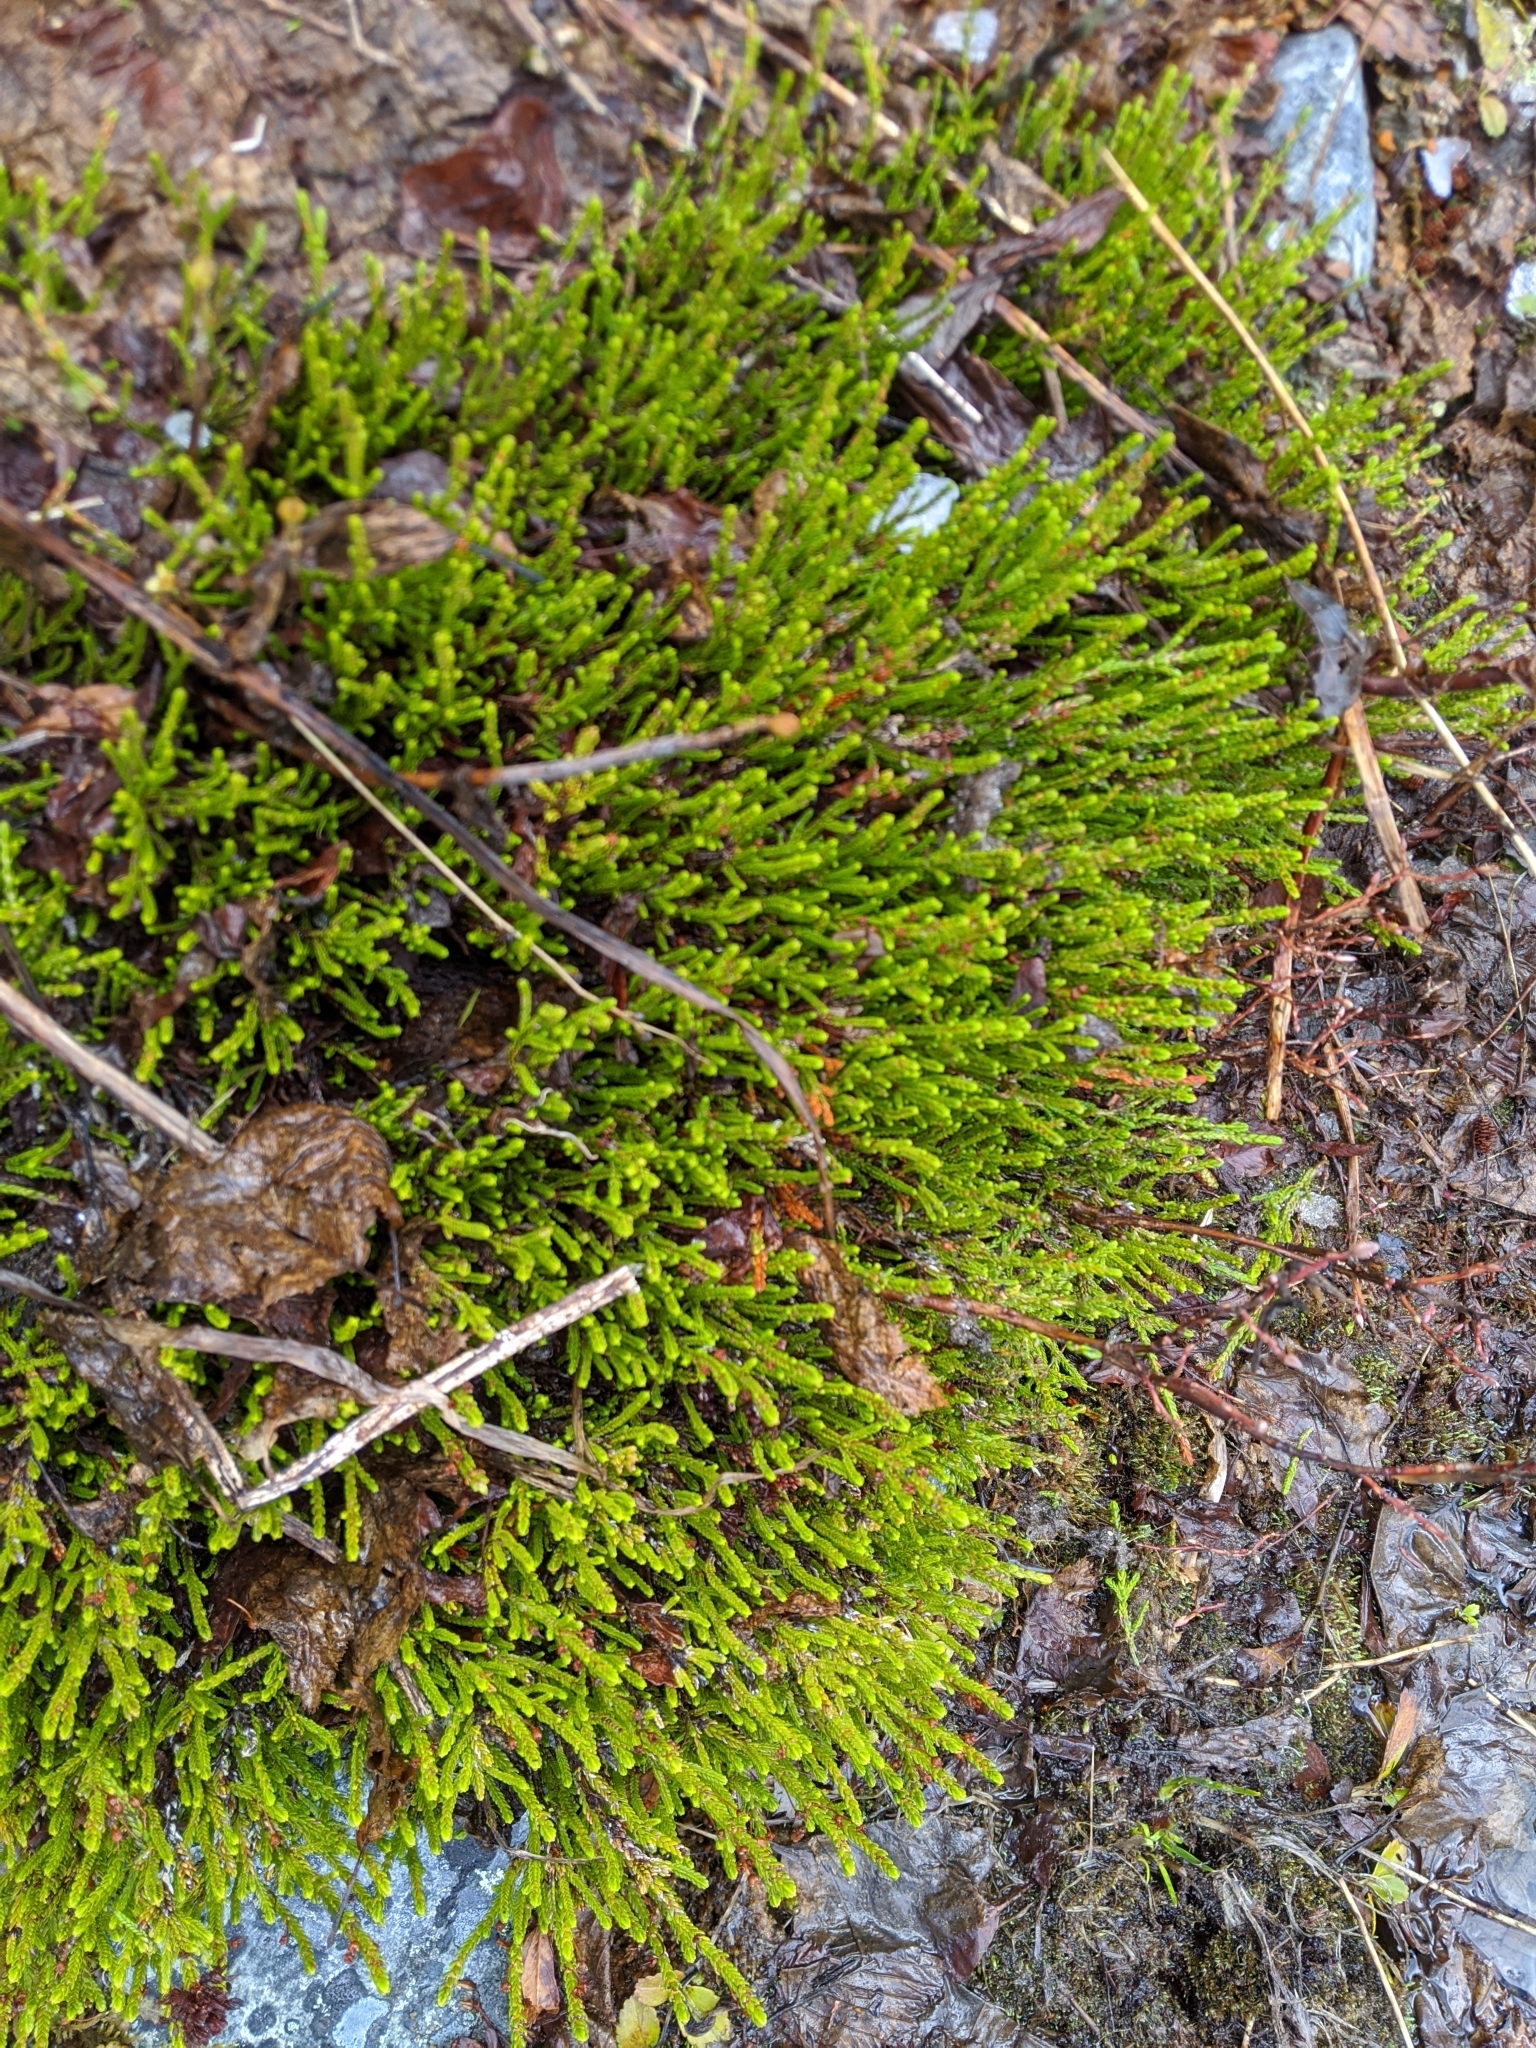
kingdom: Plantae
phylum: Tracheophyta
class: Magnoliopsida
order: Ericales
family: Ericaceae
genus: Cassiope
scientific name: Cassiope mertensiana
